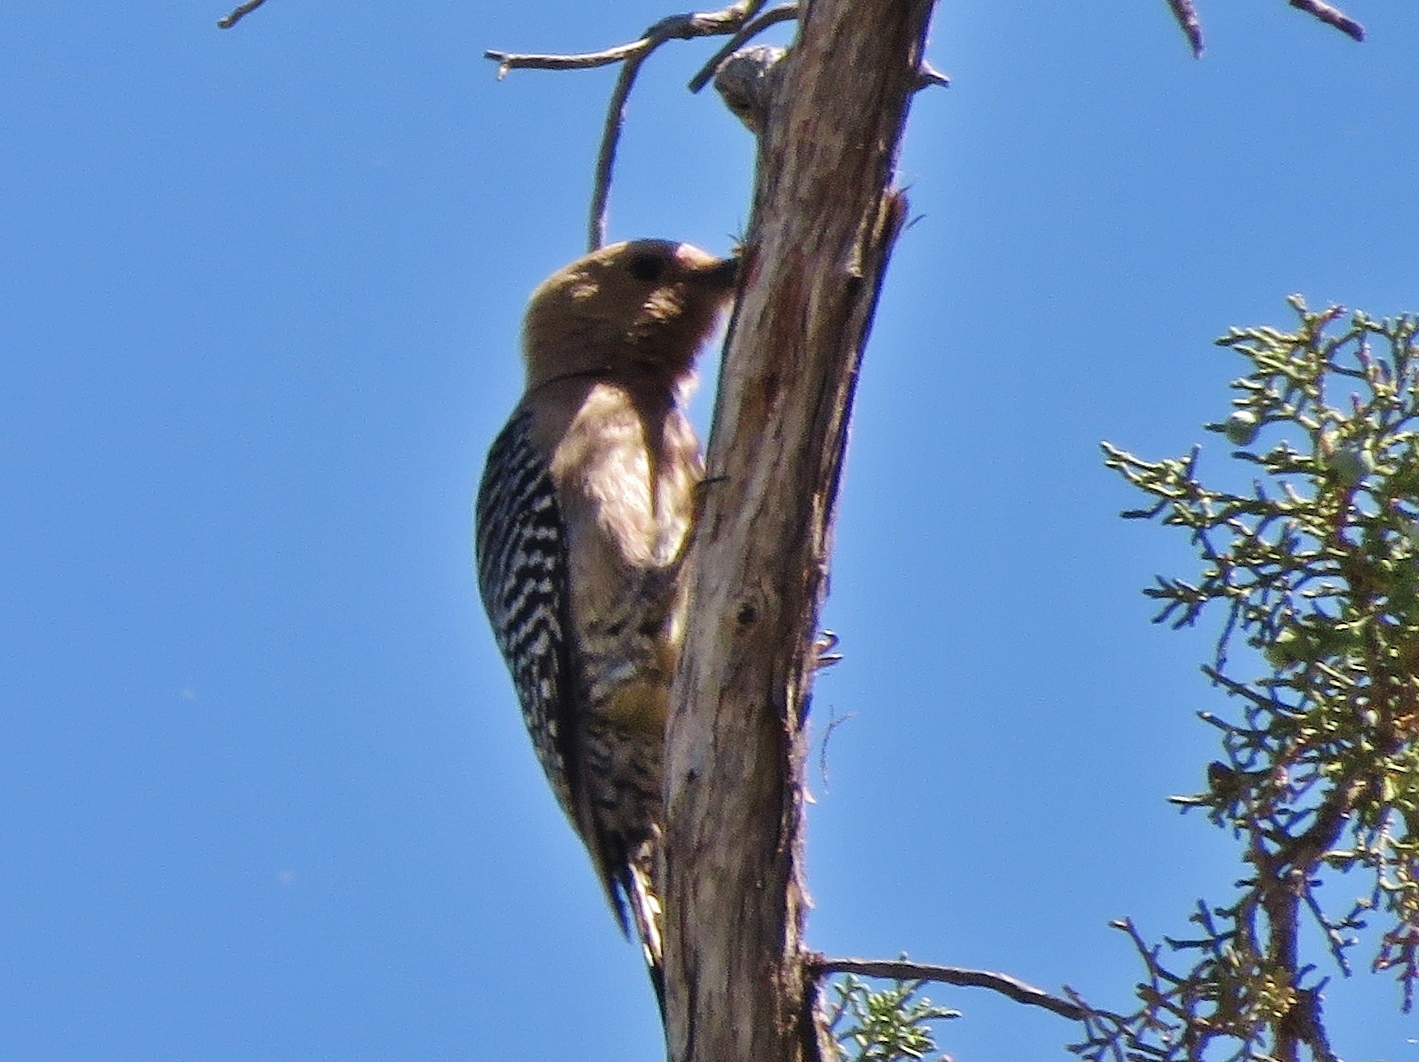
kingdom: Animalia
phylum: Chordata
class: Aves
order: Piciformes
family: Picidae
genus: Melanerpes
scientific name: Melanerpes uropygialis
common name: Gila woodpecker
